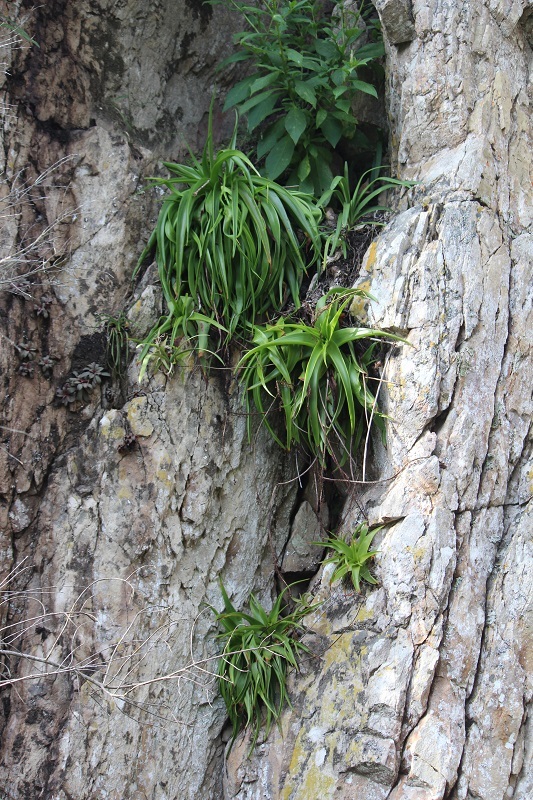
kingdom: Plantae
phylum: Tracheophyta
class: Liliopsida
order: Asparagales
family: Asphodelaceae
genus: Bulbine
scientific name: Bulbine latifolia
